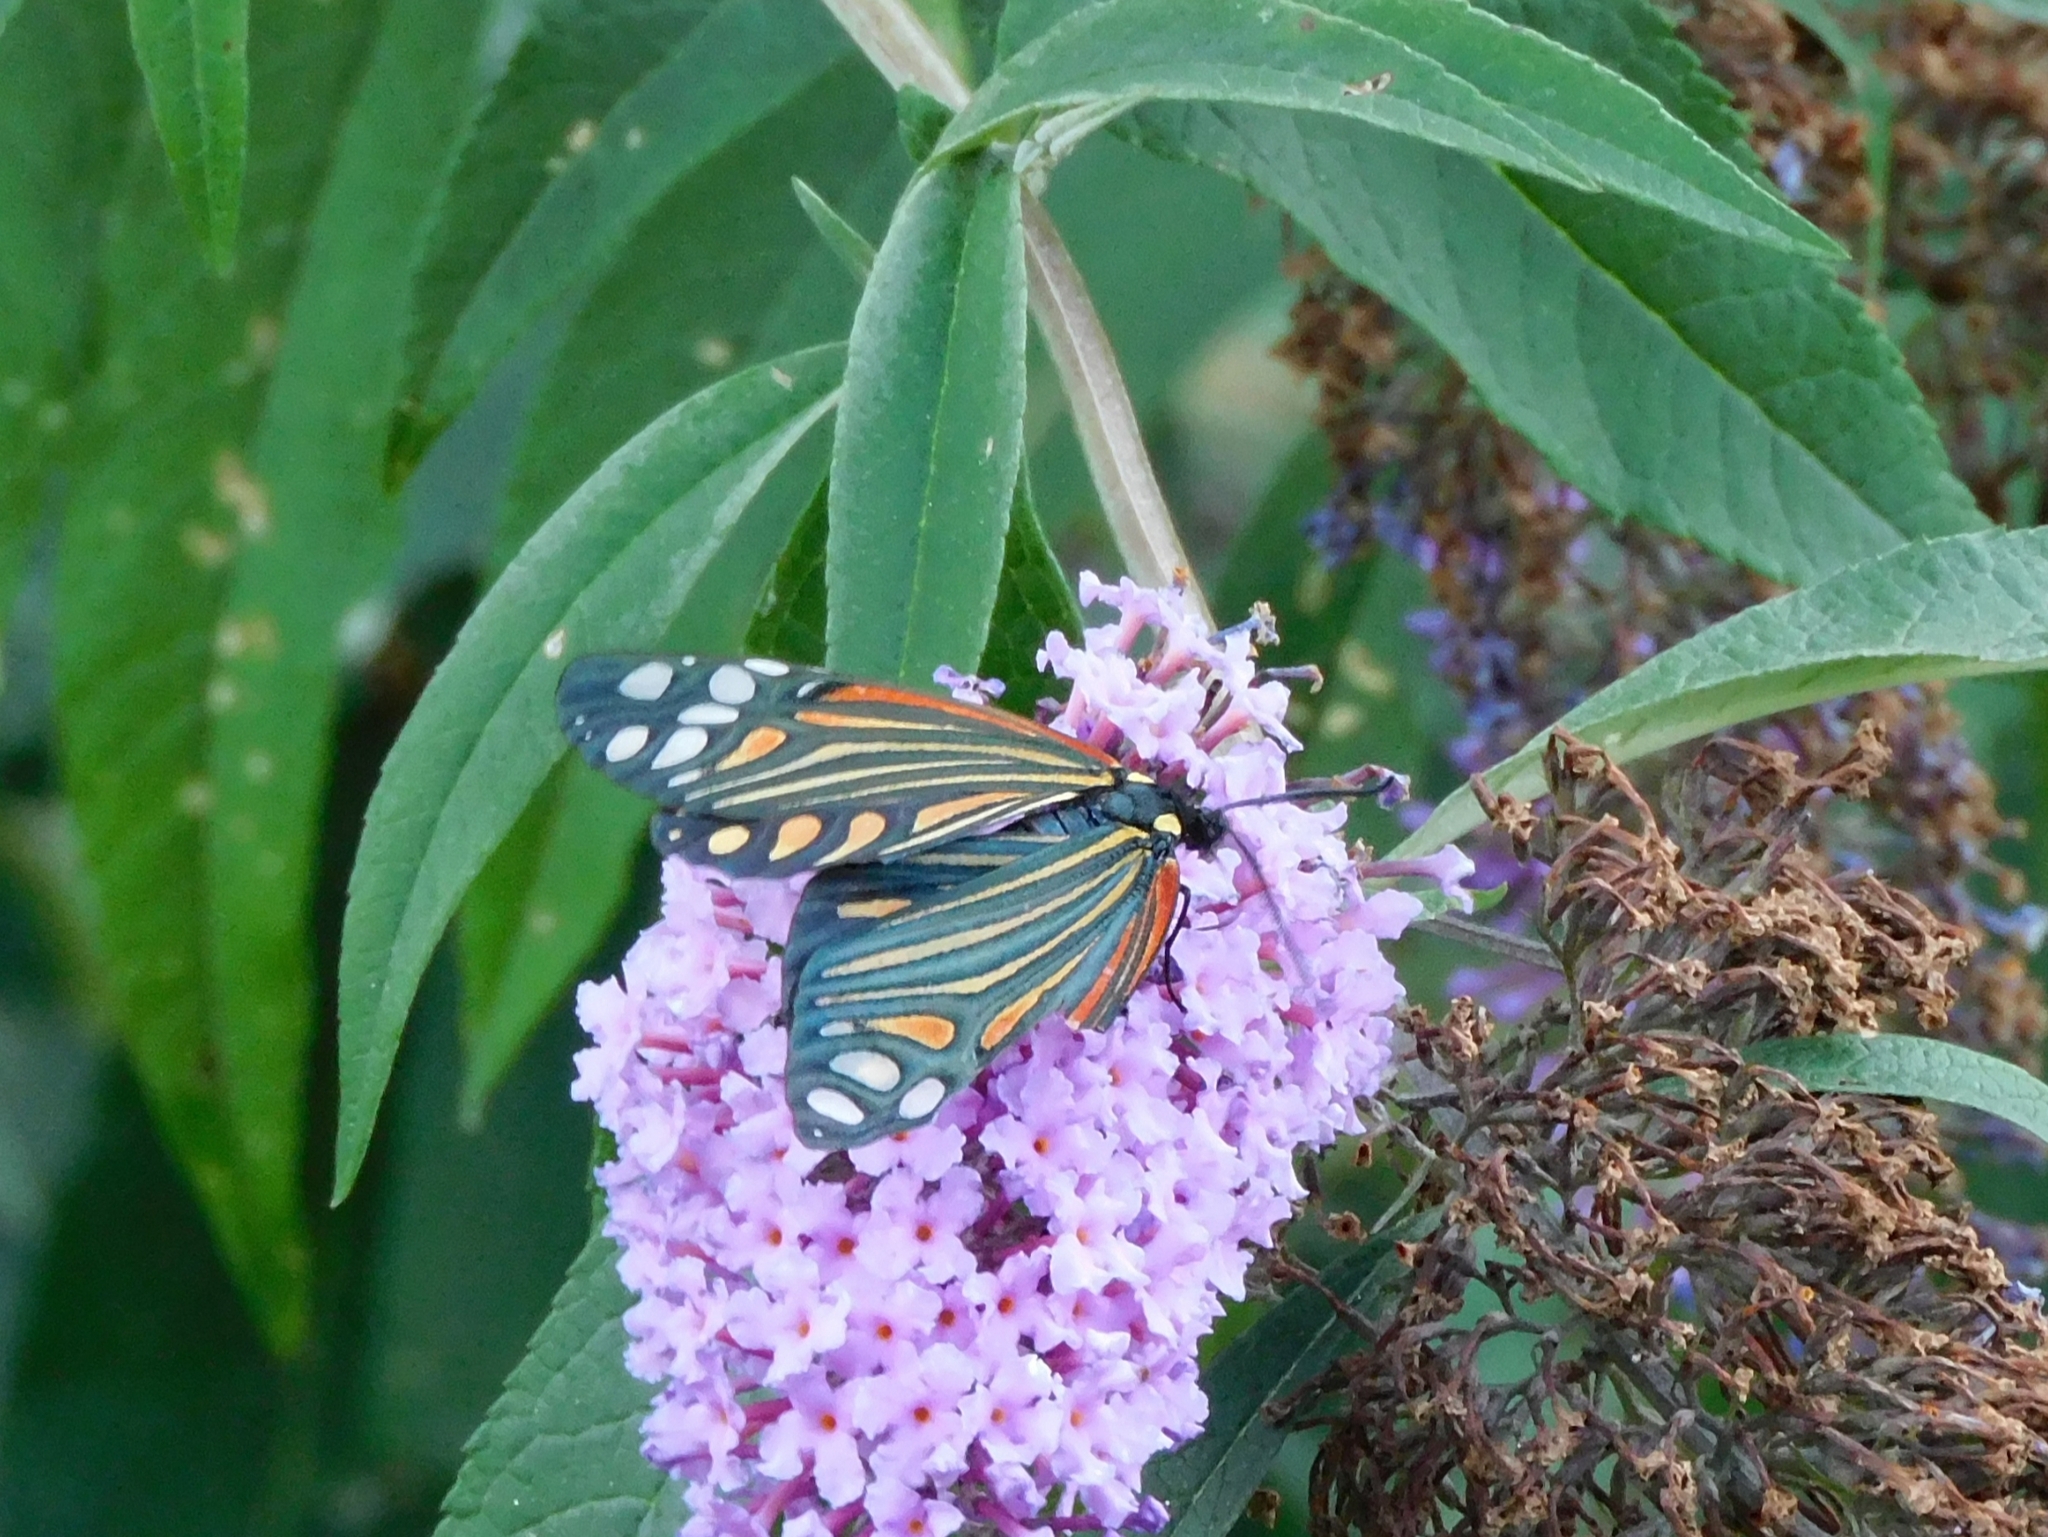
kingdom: Animalia
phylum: Arthropoda
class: Insecta
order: Lepidoptera
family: Zygaenidae
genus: Campylotes
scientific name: Campylotes histrionicus
